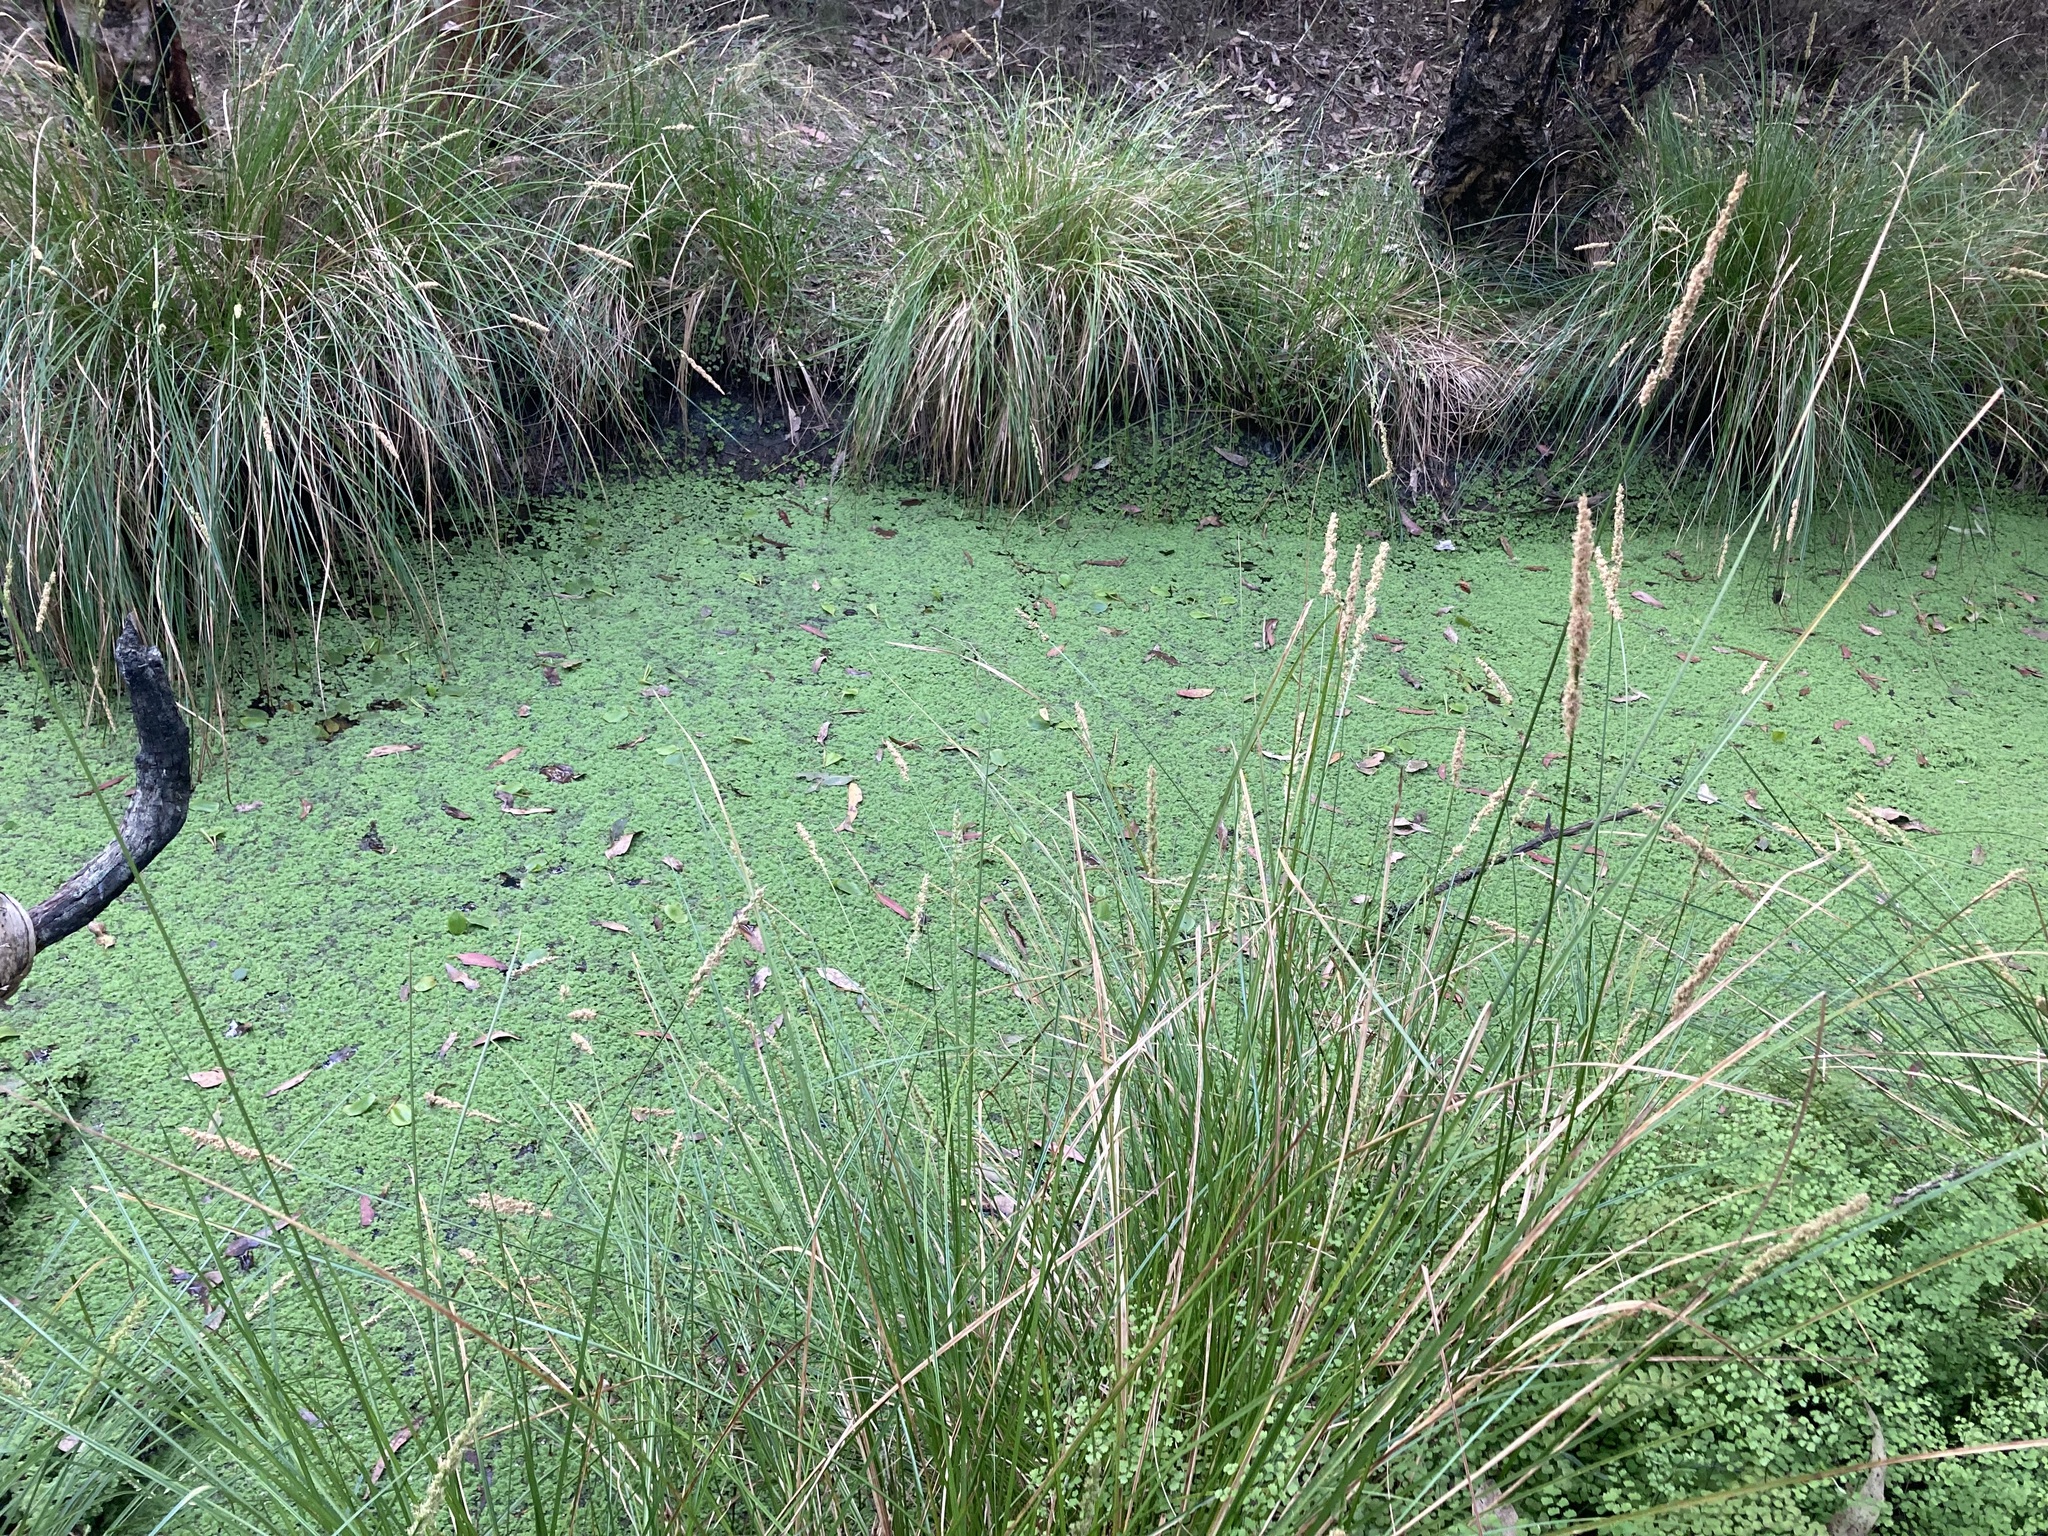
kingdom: Plantae
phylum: Tracheophyta
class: Polypodiopsida
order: Salviniales
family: Salviniaceae
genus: Azolla
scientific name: Azolla rubra
